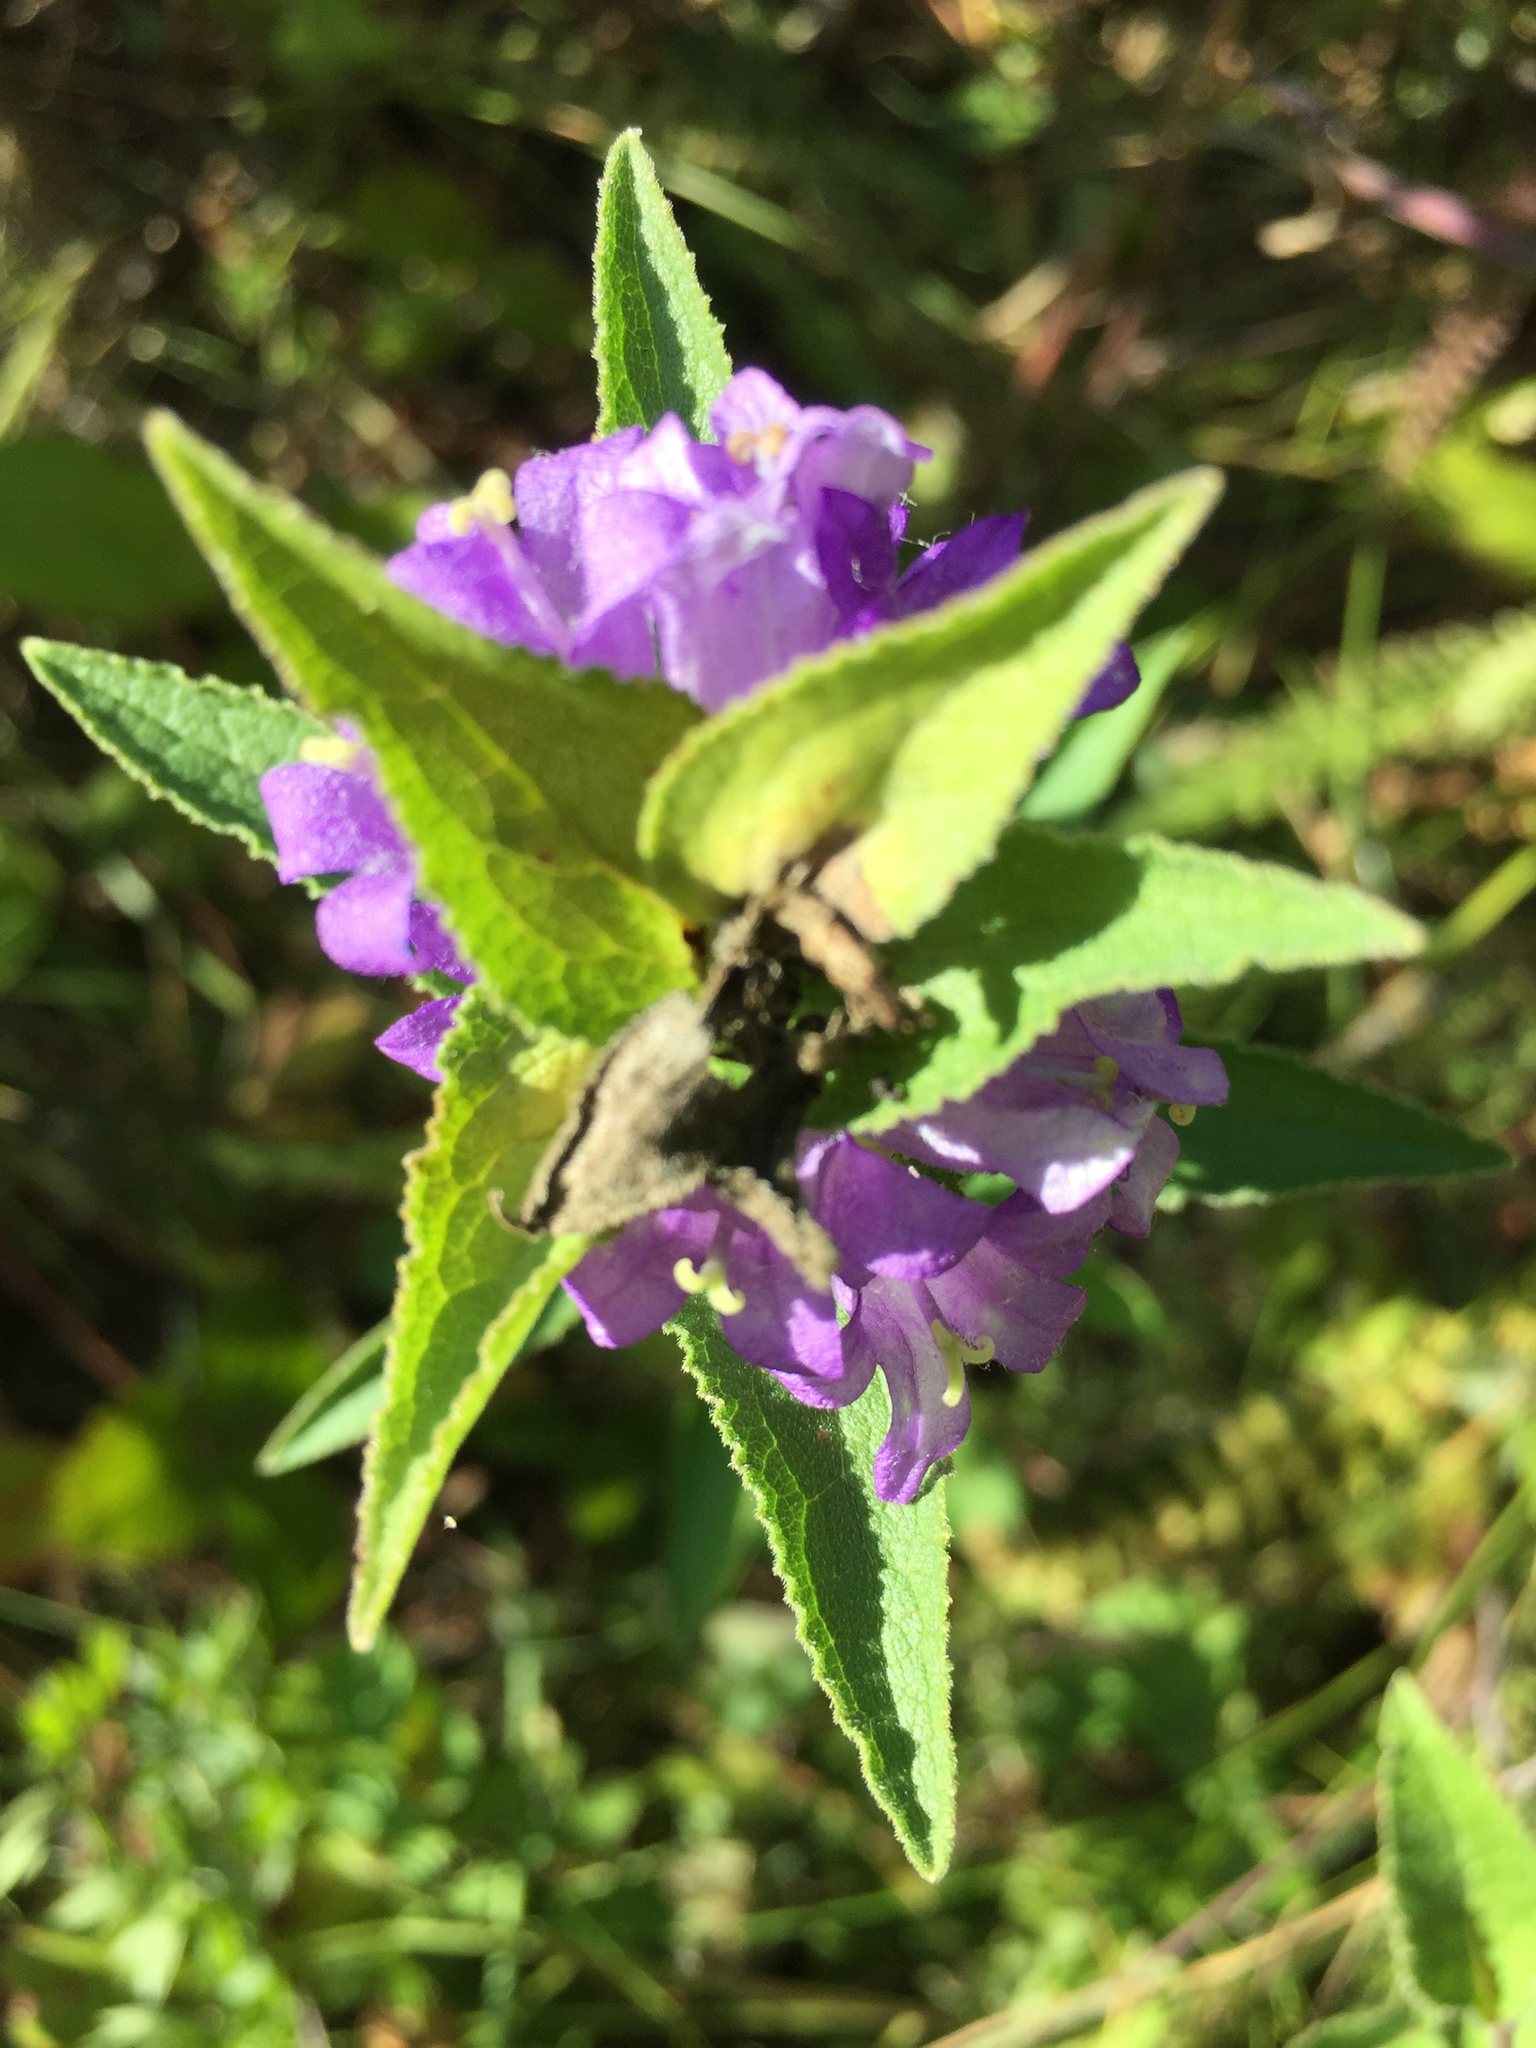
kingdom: Plantae
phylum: Tracheophyta
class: Magnoliopsida
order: Asterales
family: Campanulaceae
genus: Campanula
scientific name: Campanula glomerata
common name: Clustered bellflower
